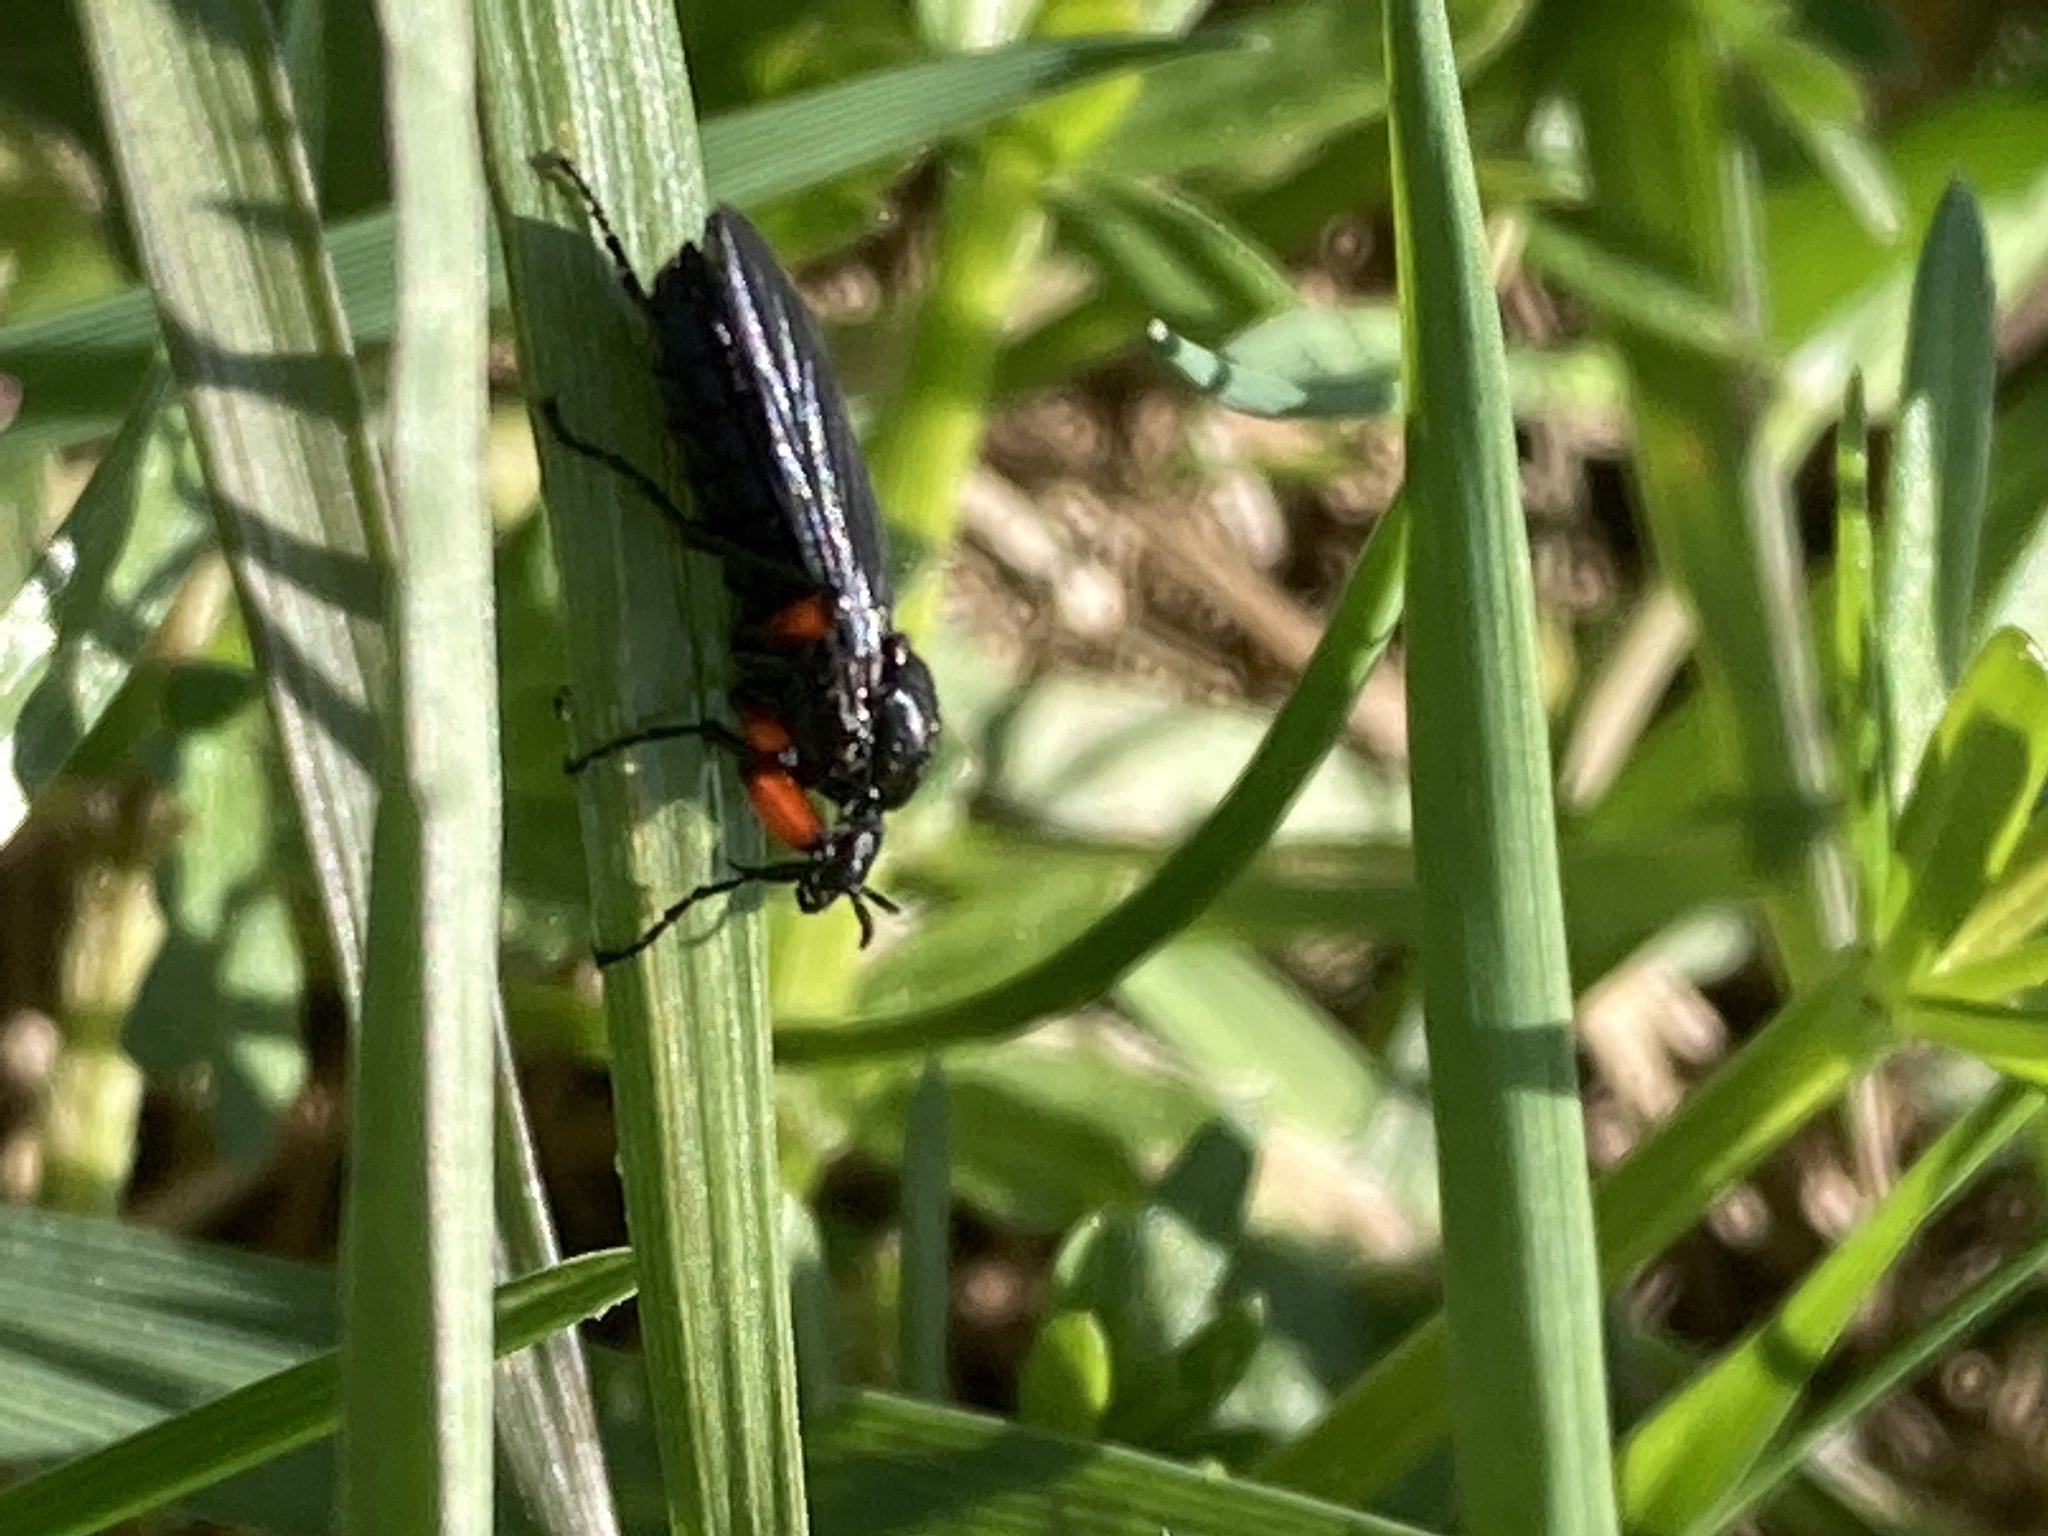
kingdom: Animalia
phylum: Arthropoda
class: Insecta
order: Diptera
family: Bibionidae
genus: Bibio
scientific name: Bibio femoratus
